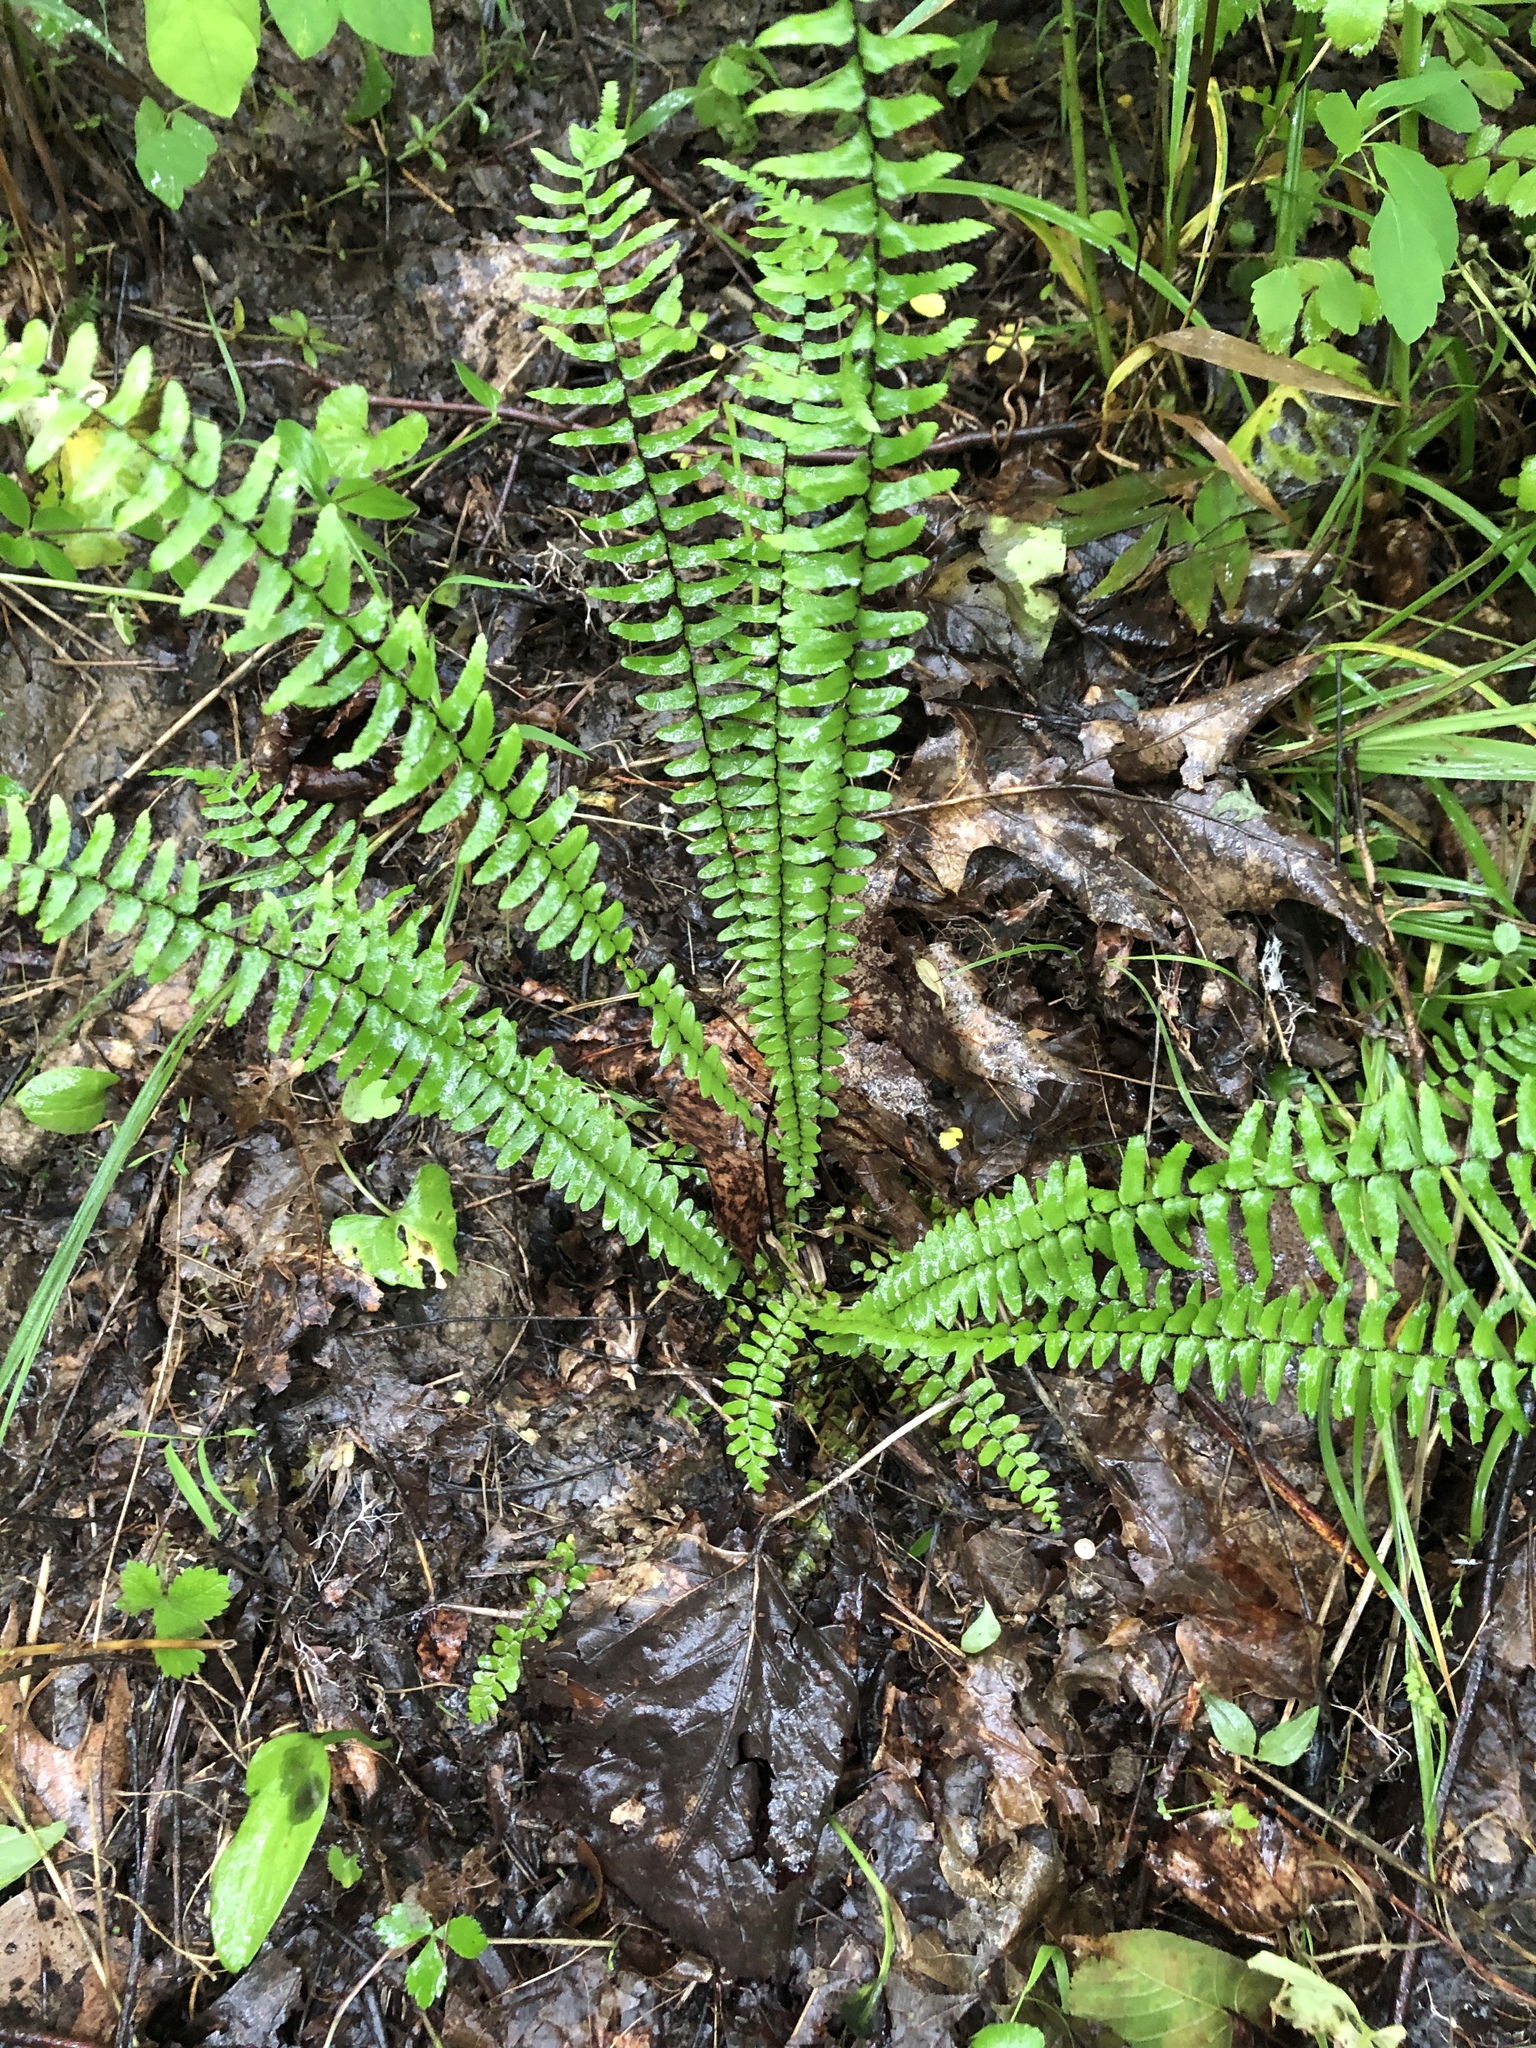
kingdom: Plantae
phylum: Tracheophyta
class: Polypodiopsida
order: Polypodiales
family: Aspleniaceae
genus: Asplenium
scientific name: Asplenium platyneuron
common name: Ebony spleenwort
